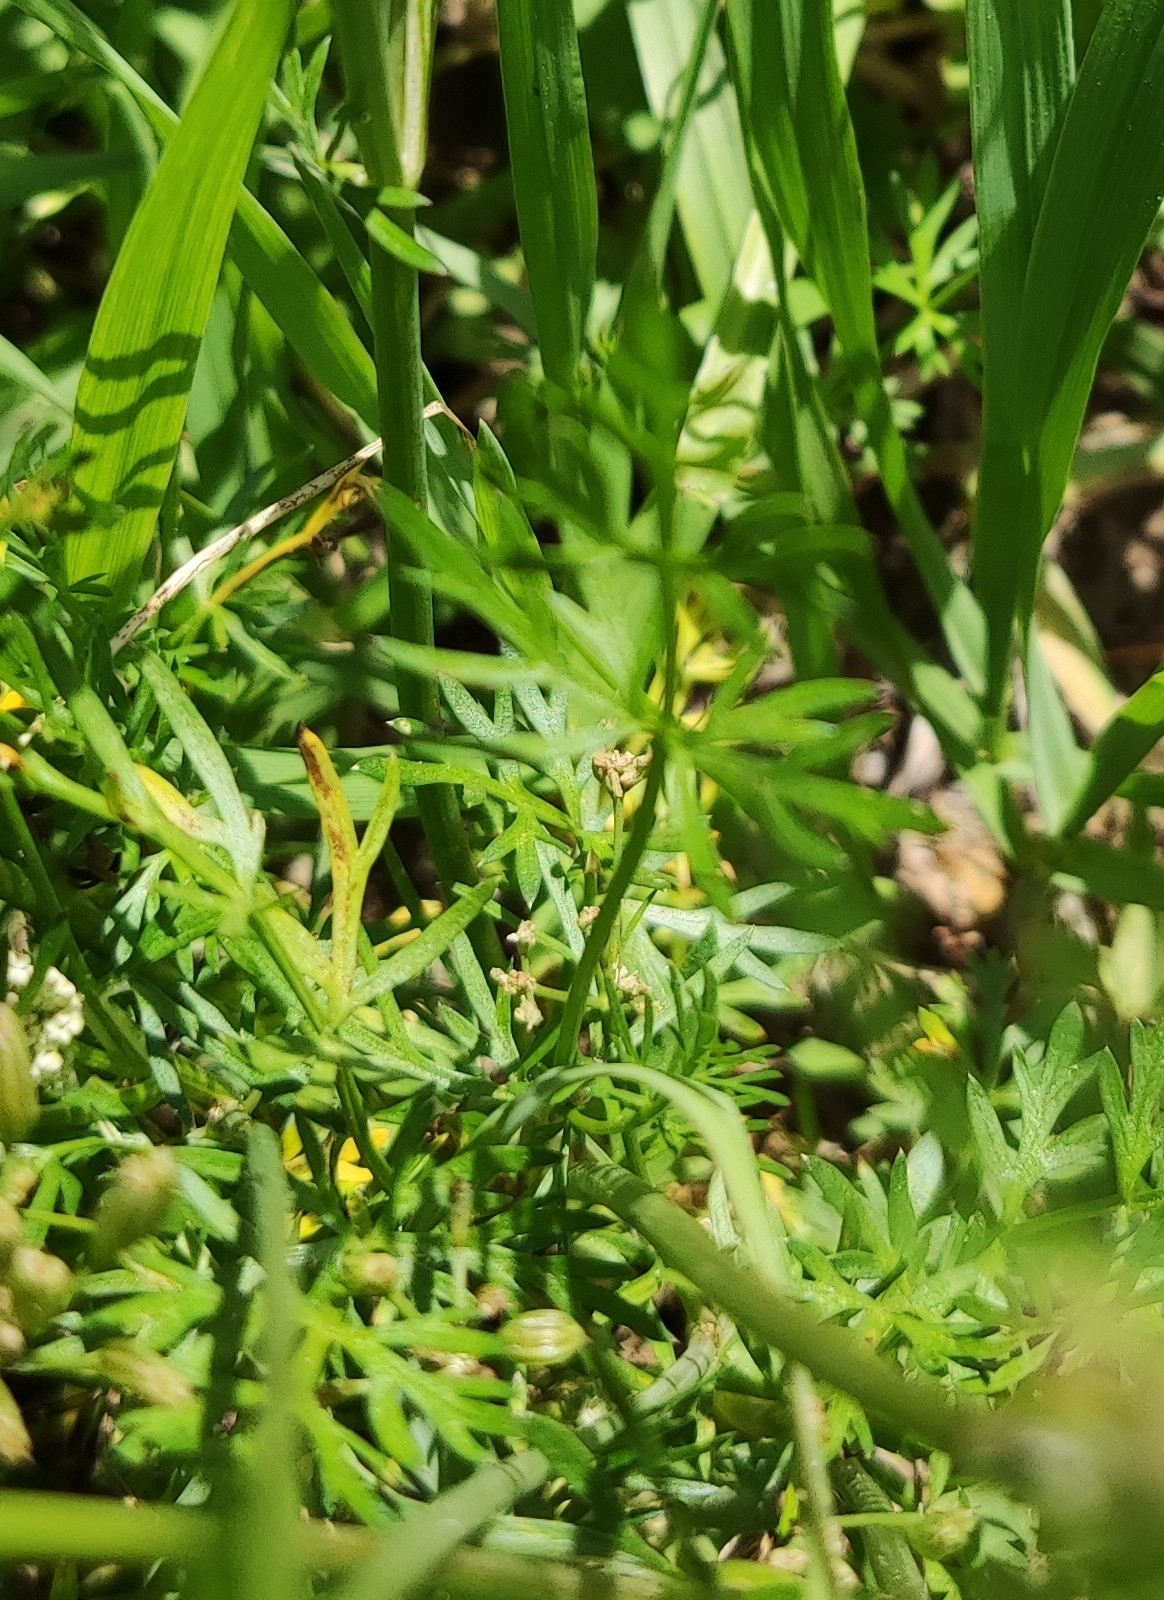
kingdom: Plantae
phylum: Tracheophyta
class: Magnoliopsida
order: Apiales
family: Apiaceae
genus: Carum
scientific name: Carum carvi
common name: Caraway
